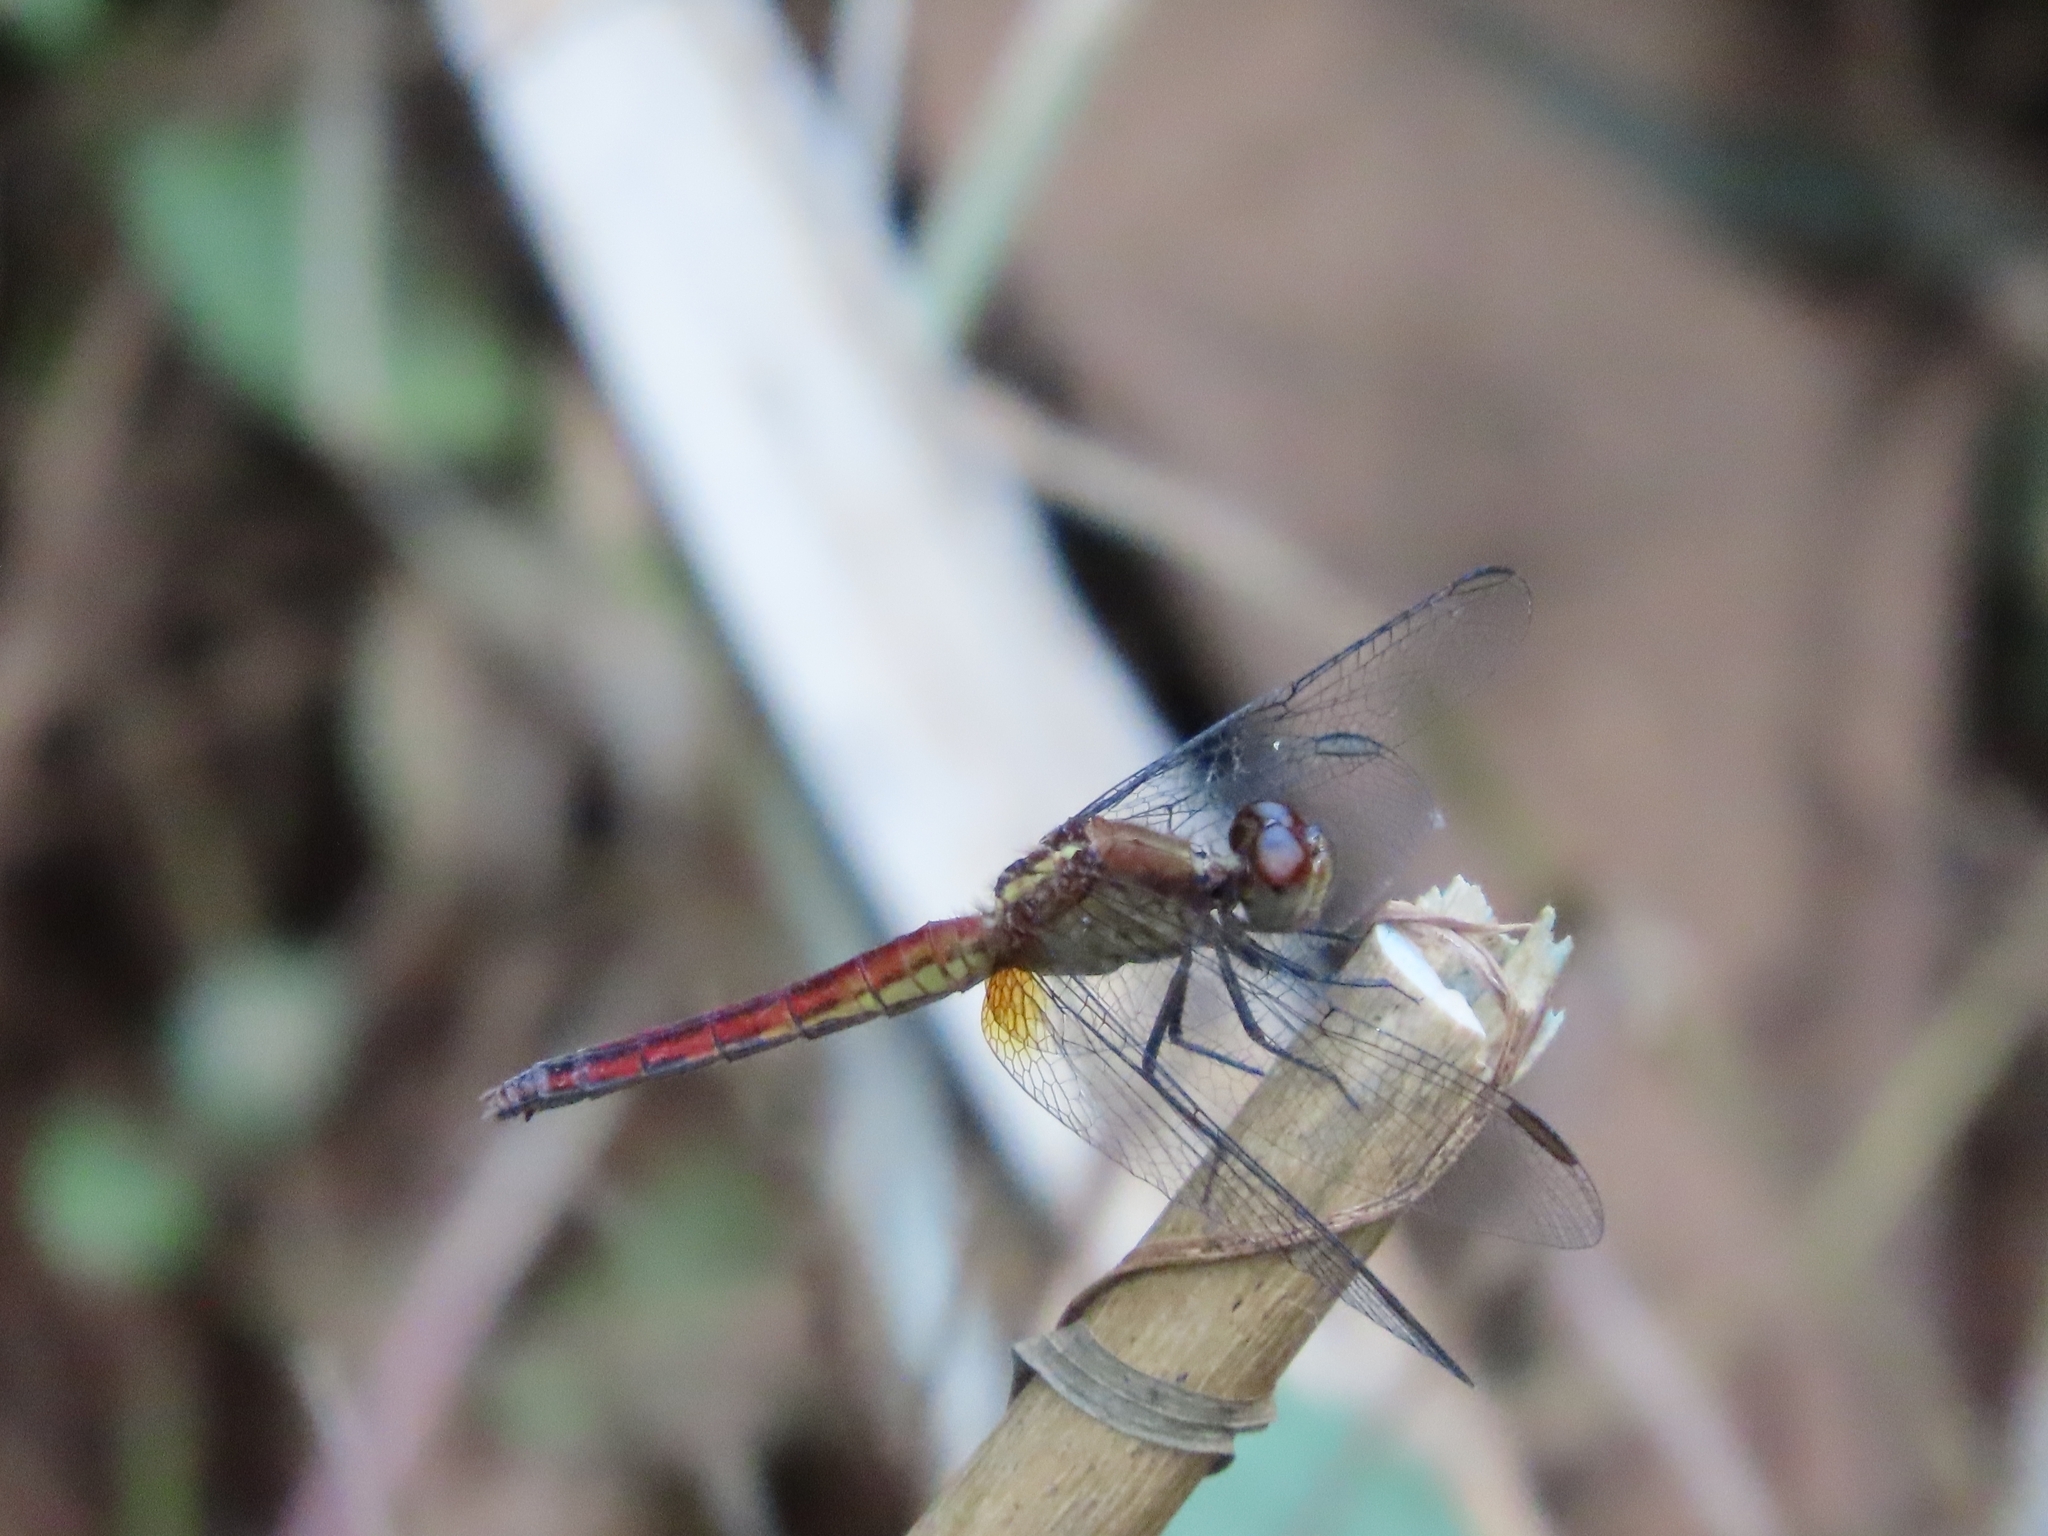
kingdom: Animalia
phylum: Arthropoda
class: Insecta
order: Odonata
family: Libellulidae
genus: Erythrodiplax
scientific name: Erythrodiplax fusca
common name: Red-faced dragonlet
